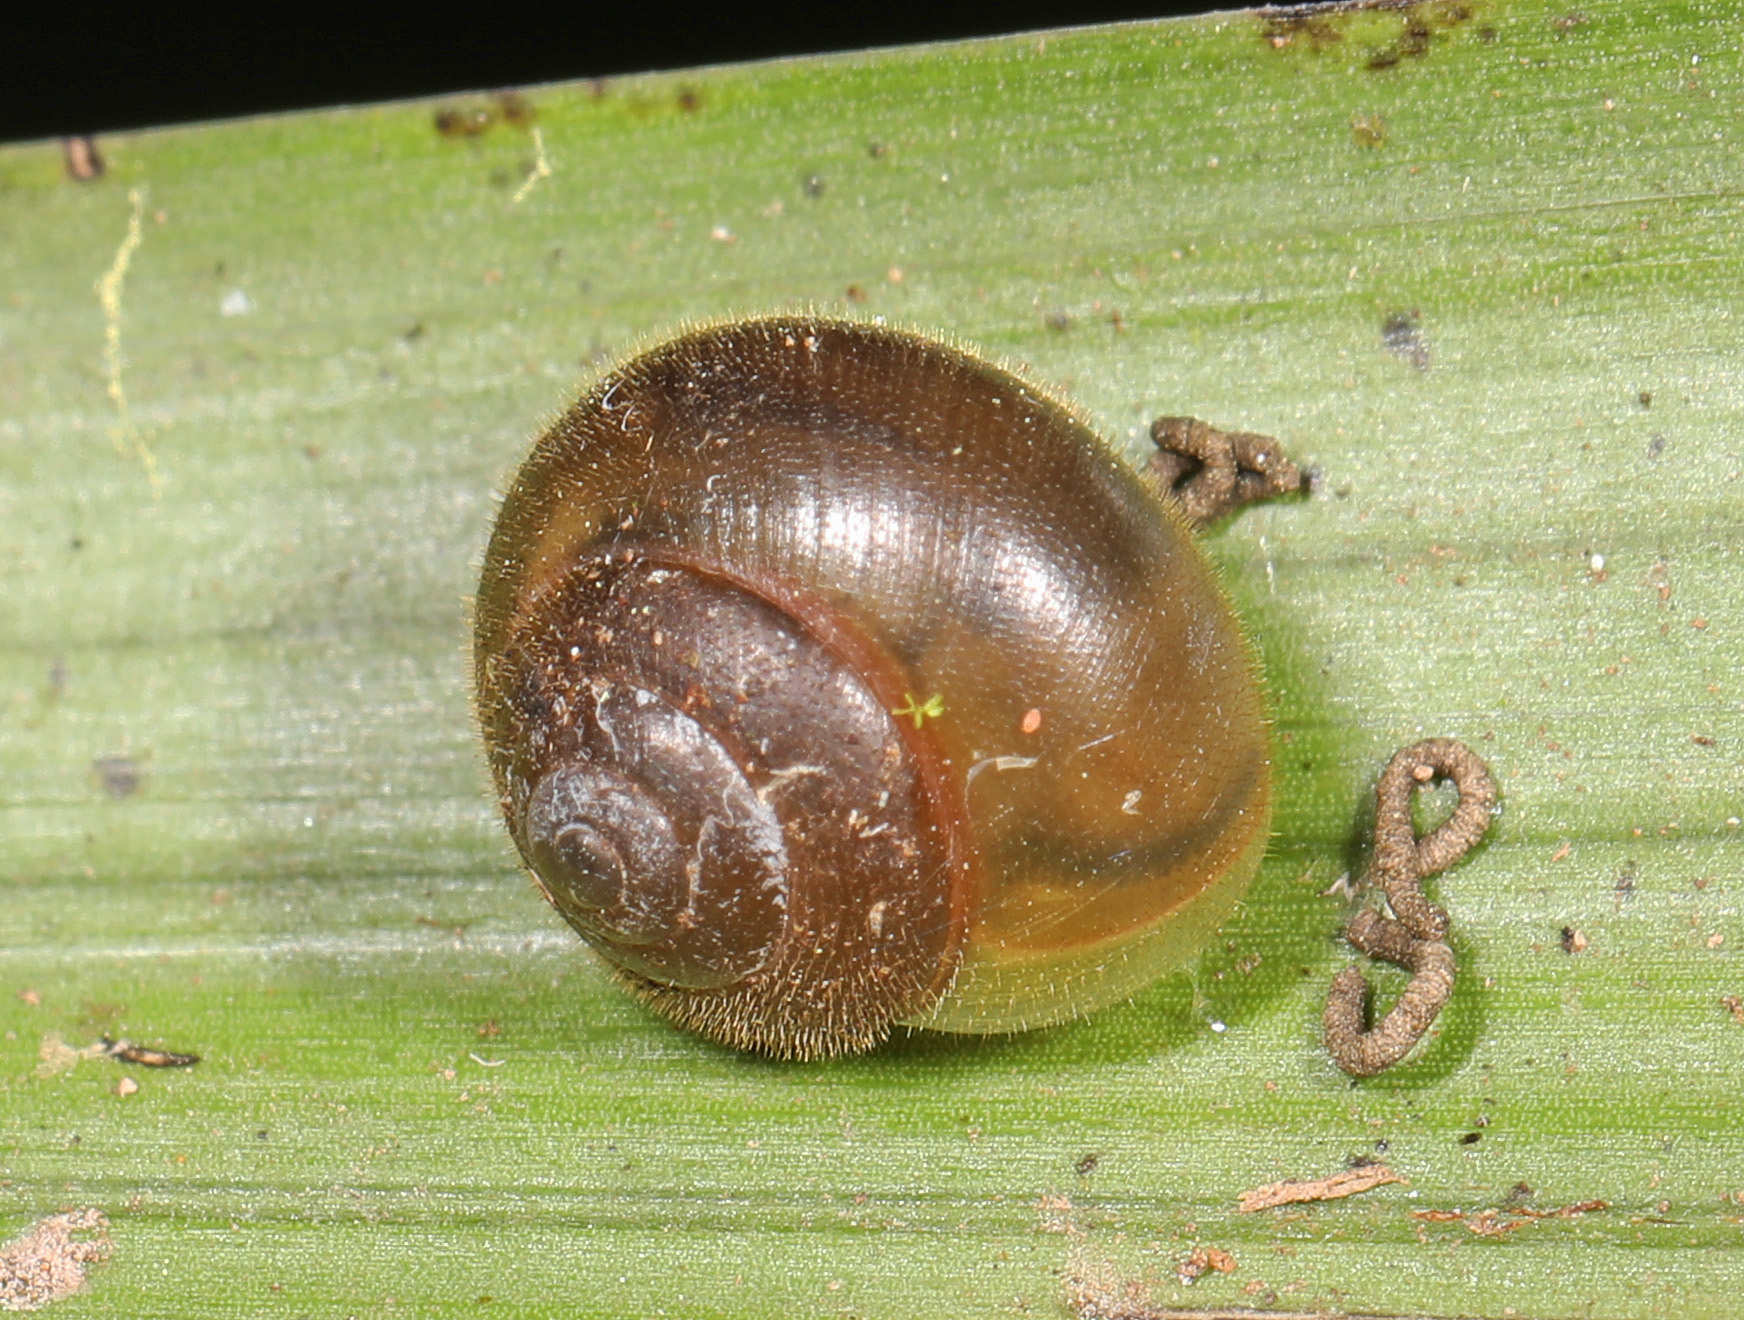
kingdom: Animalia
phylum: Mollusca
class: Gastropoda
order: Cycloneritida
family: Helicinidae
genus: Alcadia
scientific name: Alcadia
